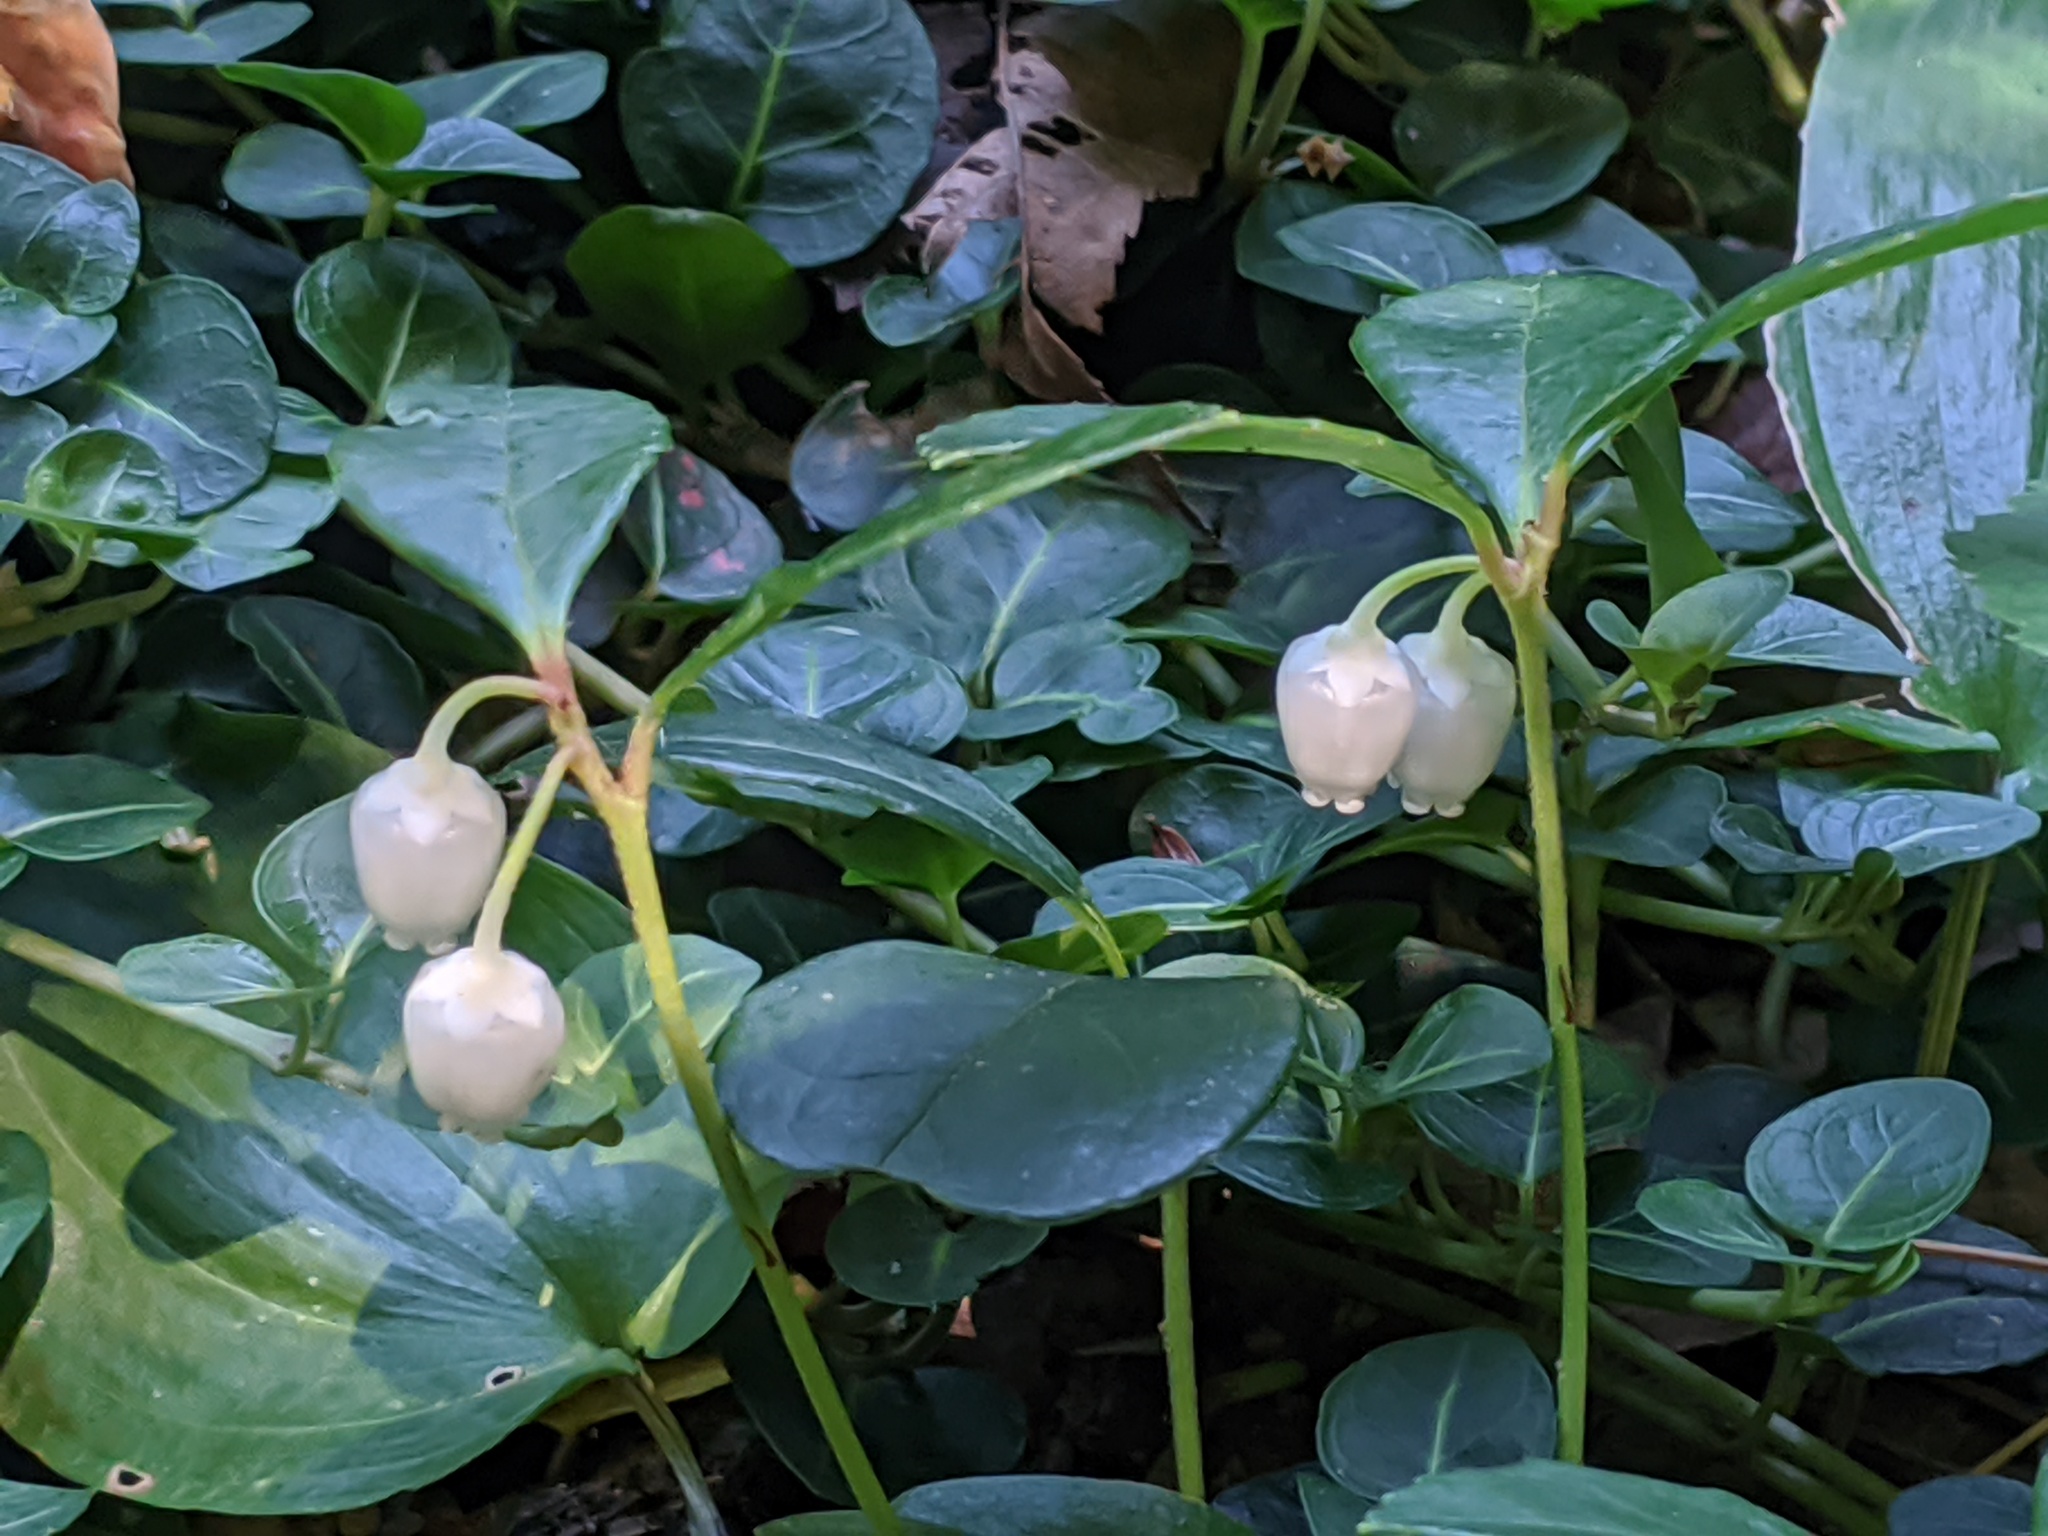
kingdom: Plantae
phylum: Tracheophyta
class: Magnoliopsida
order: Ericales
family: Ericaceae
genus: Gaultheria
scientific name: Gaultheria procumbens
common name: Checkerberry
